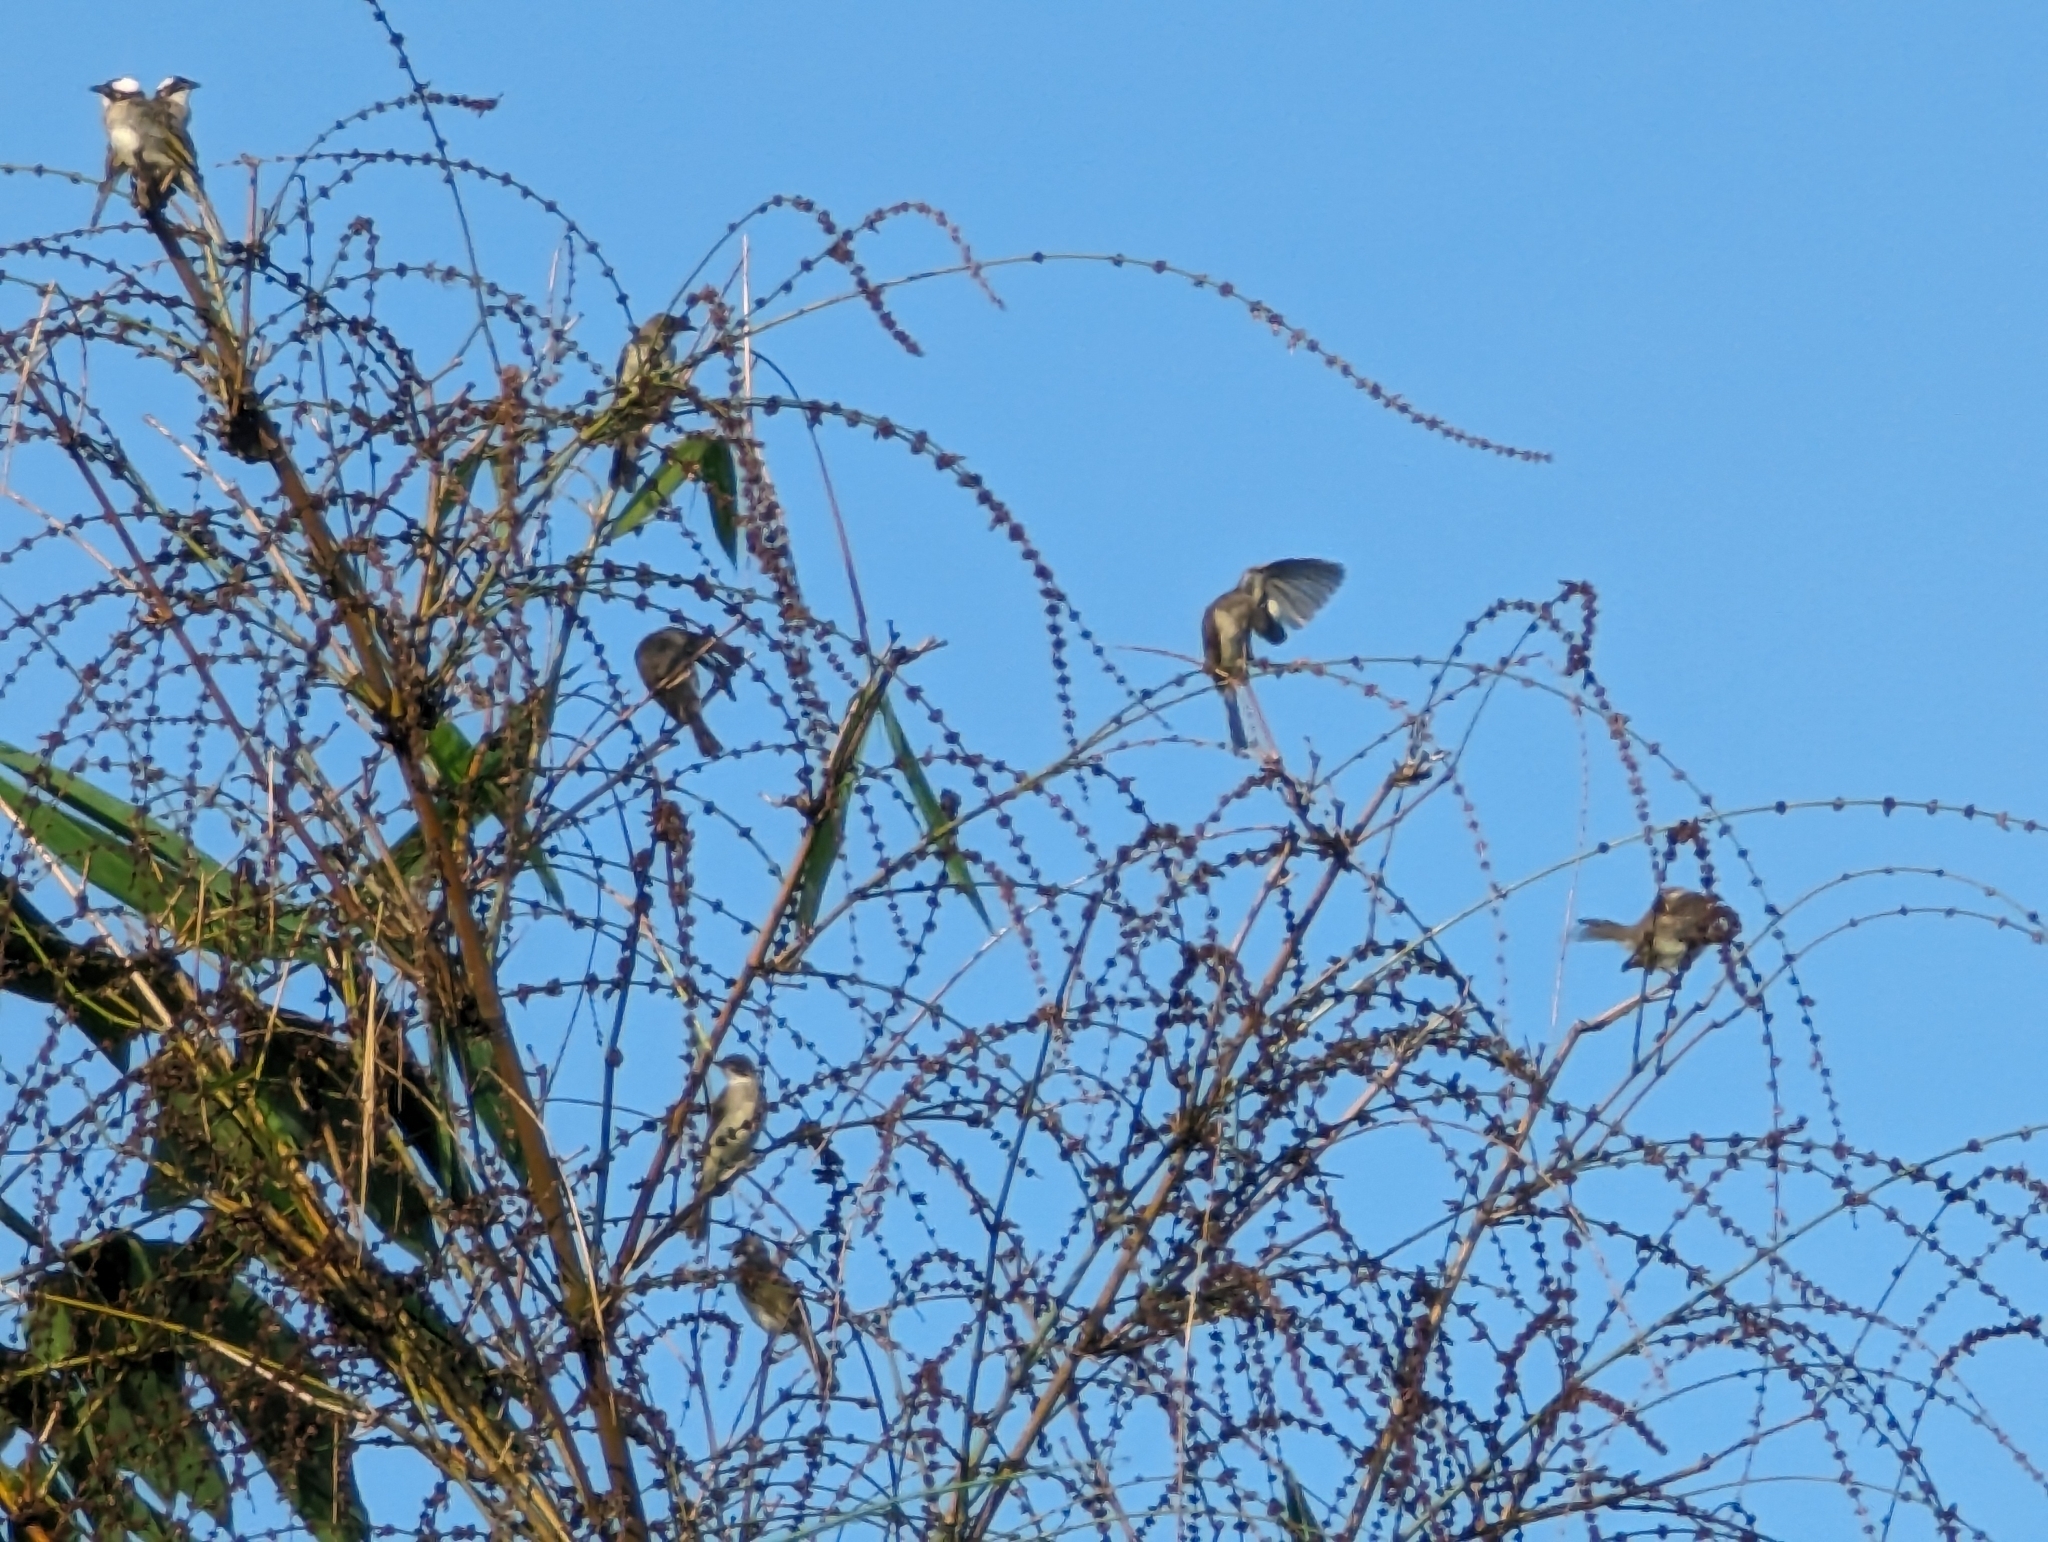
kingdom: Animalia
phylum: Chordata
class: Aves
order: Passeriformes
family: Pycnonotidae
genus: Pycnonotus
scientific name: Pycnonotus sinensis
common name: Light-vented bulbul
